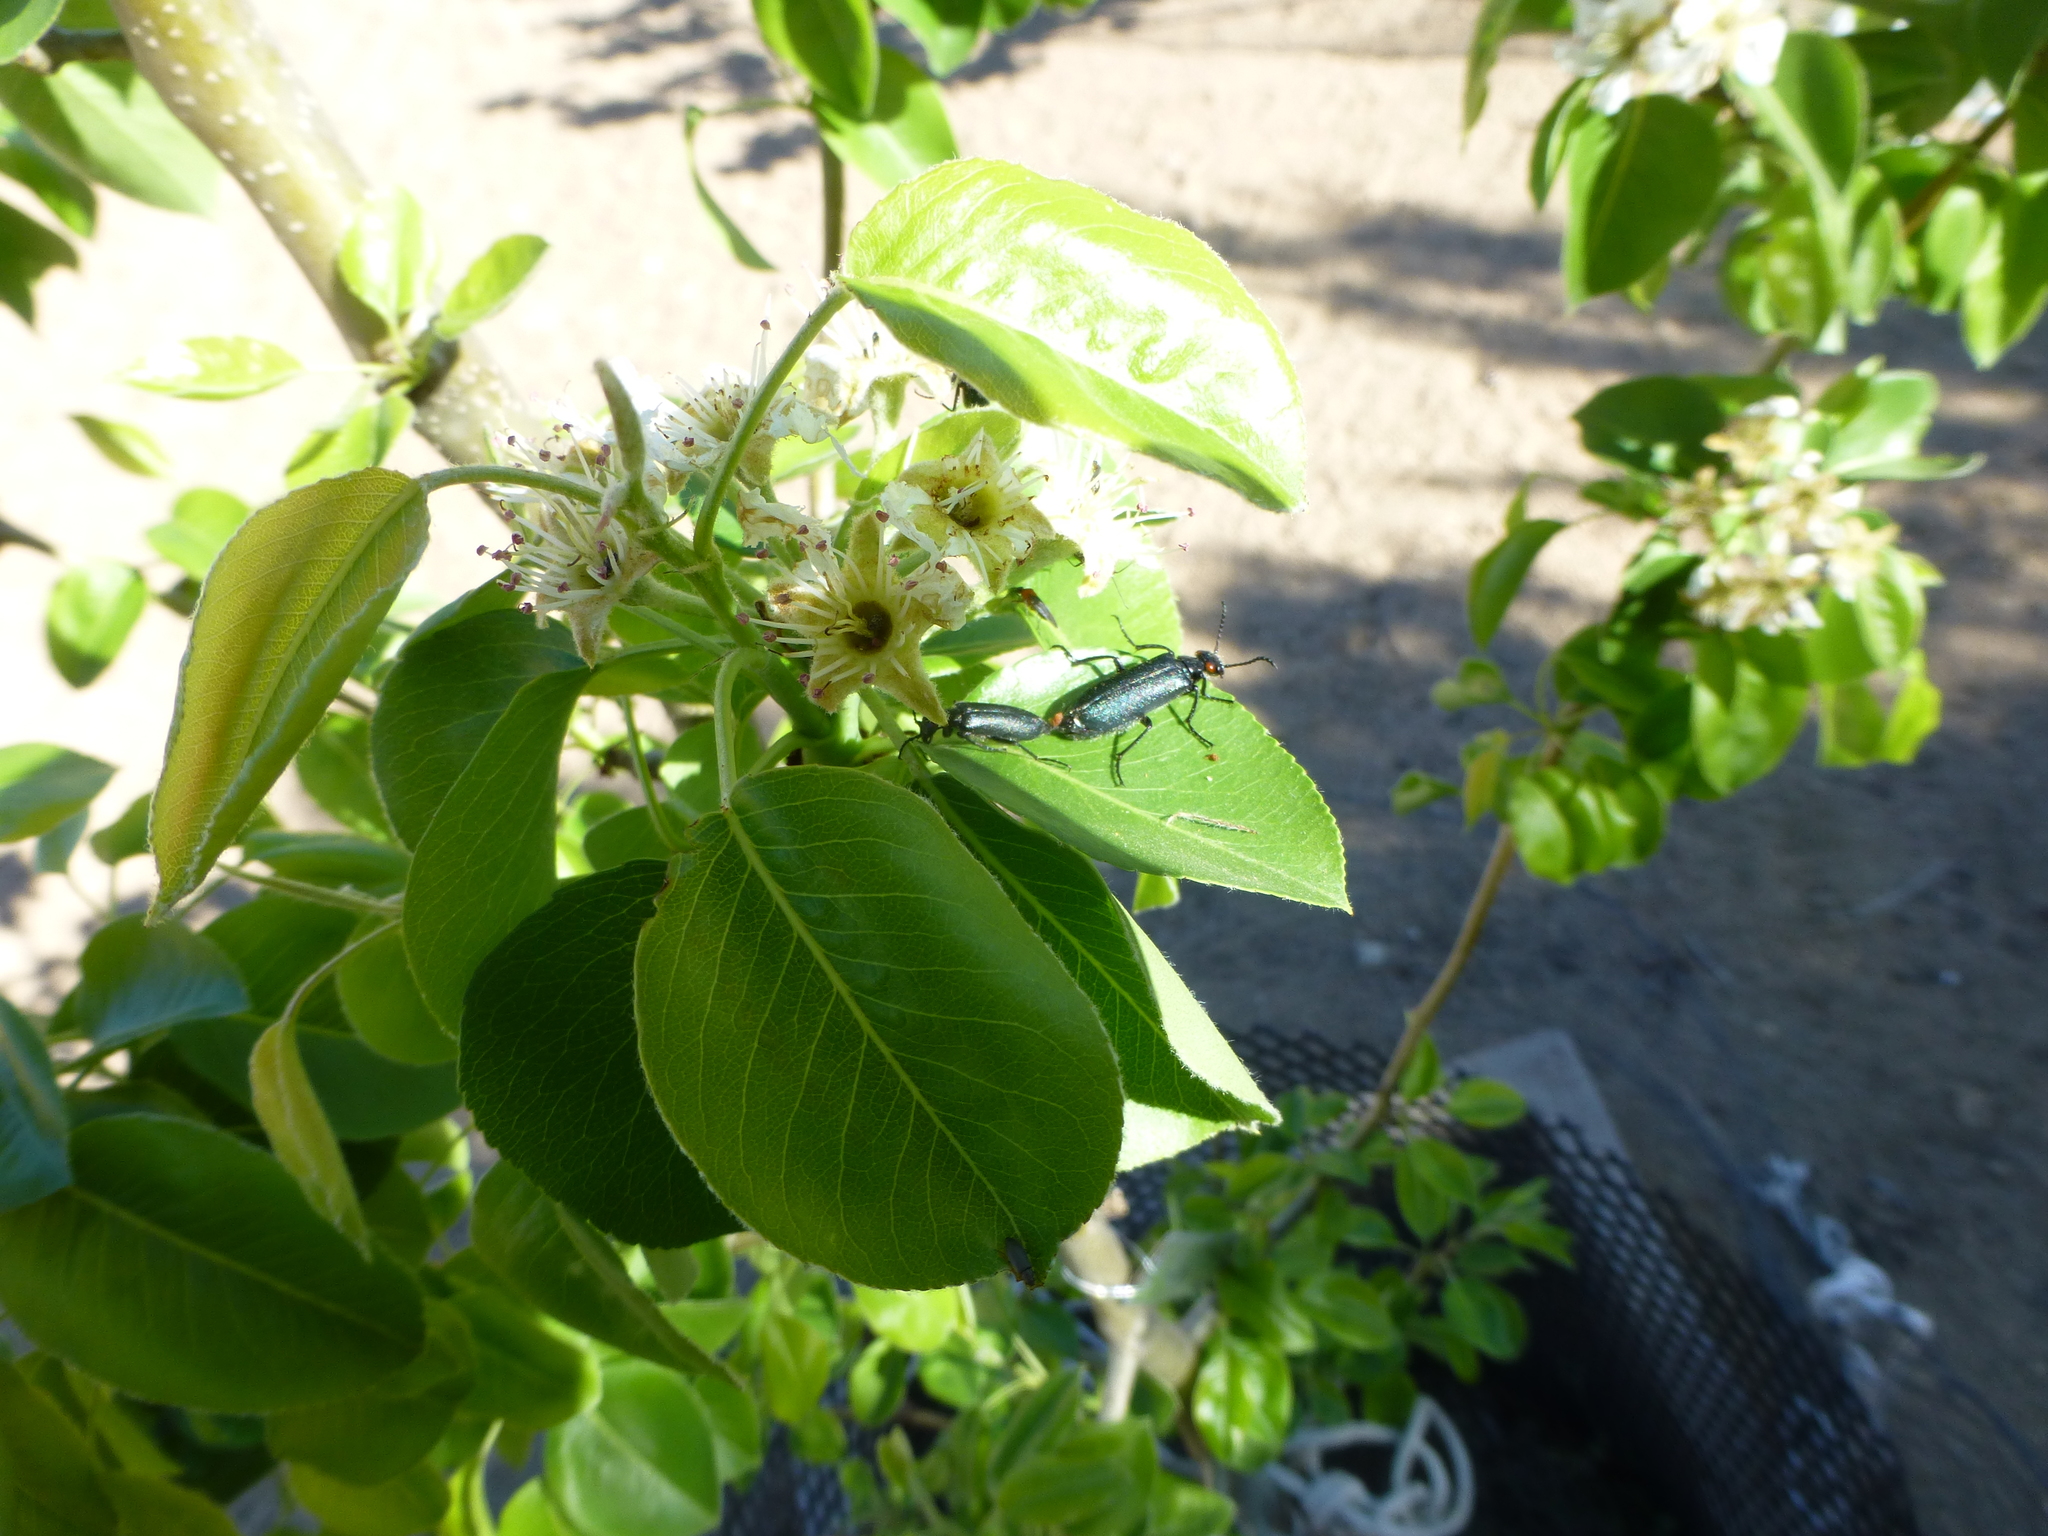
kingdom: Animalia
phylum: Arthropoda
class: Insecta
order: Coleoptera
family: Meloidae
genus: Lytta
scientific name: Lytta auriculata
